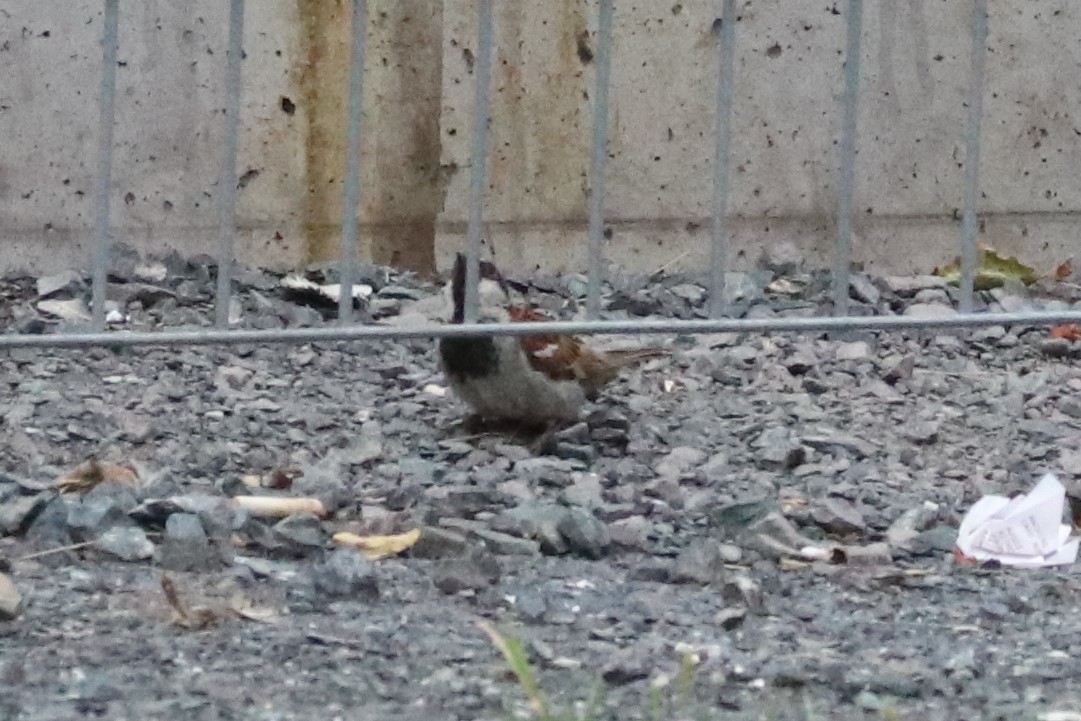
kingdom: Animalia
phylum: Chordata
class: Aves
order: Passeriformes
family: Passeridae
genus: Passer
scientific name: Passer domesticus
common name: House sparrow
